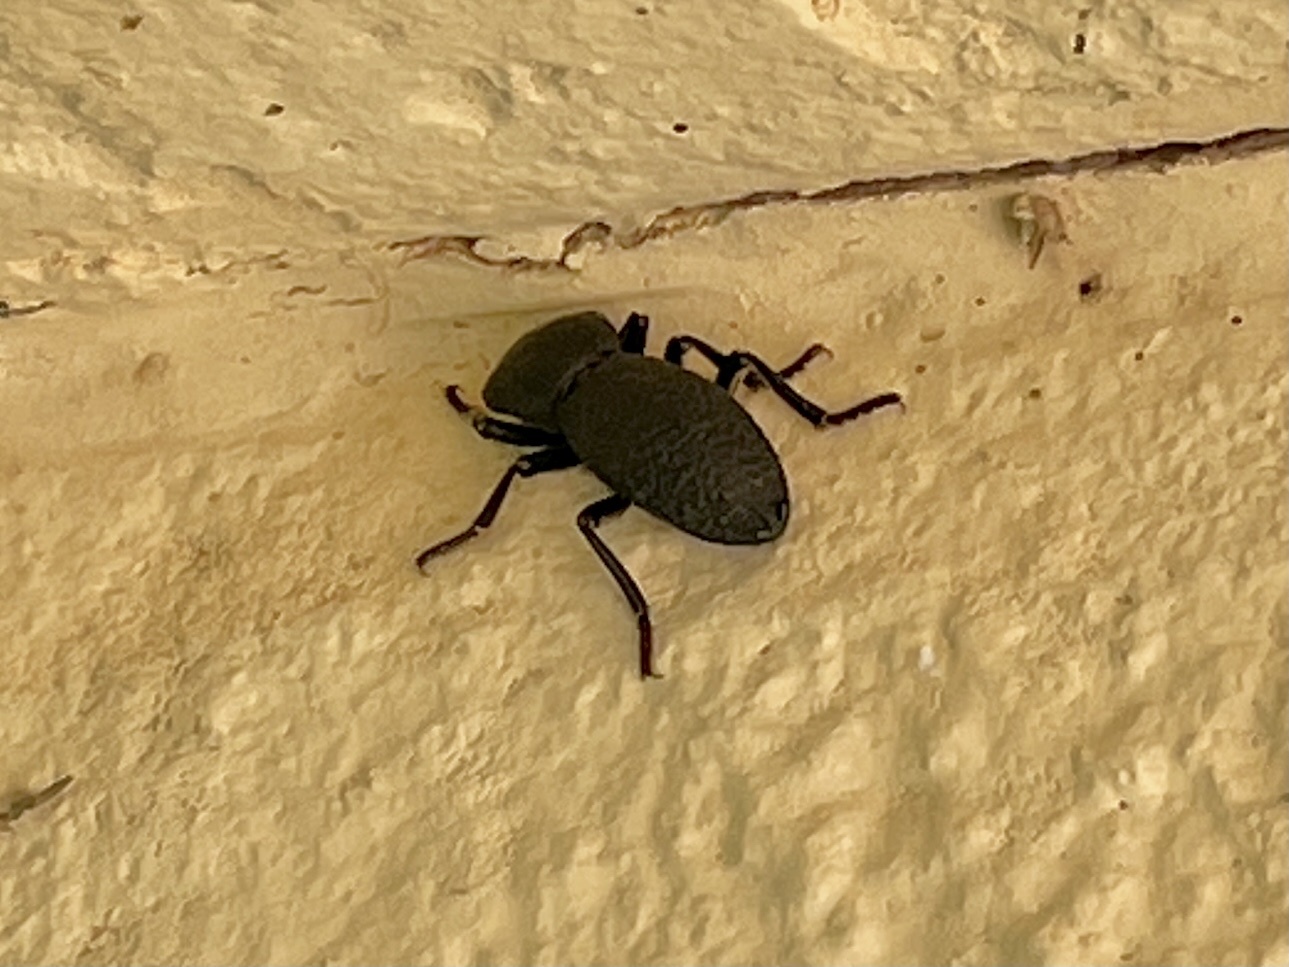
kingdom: Animalia
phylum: Arthropoda
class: Insecta
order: Coleoptera
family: Zopheridae
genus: Zopherus
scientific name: Zopherus concolor
